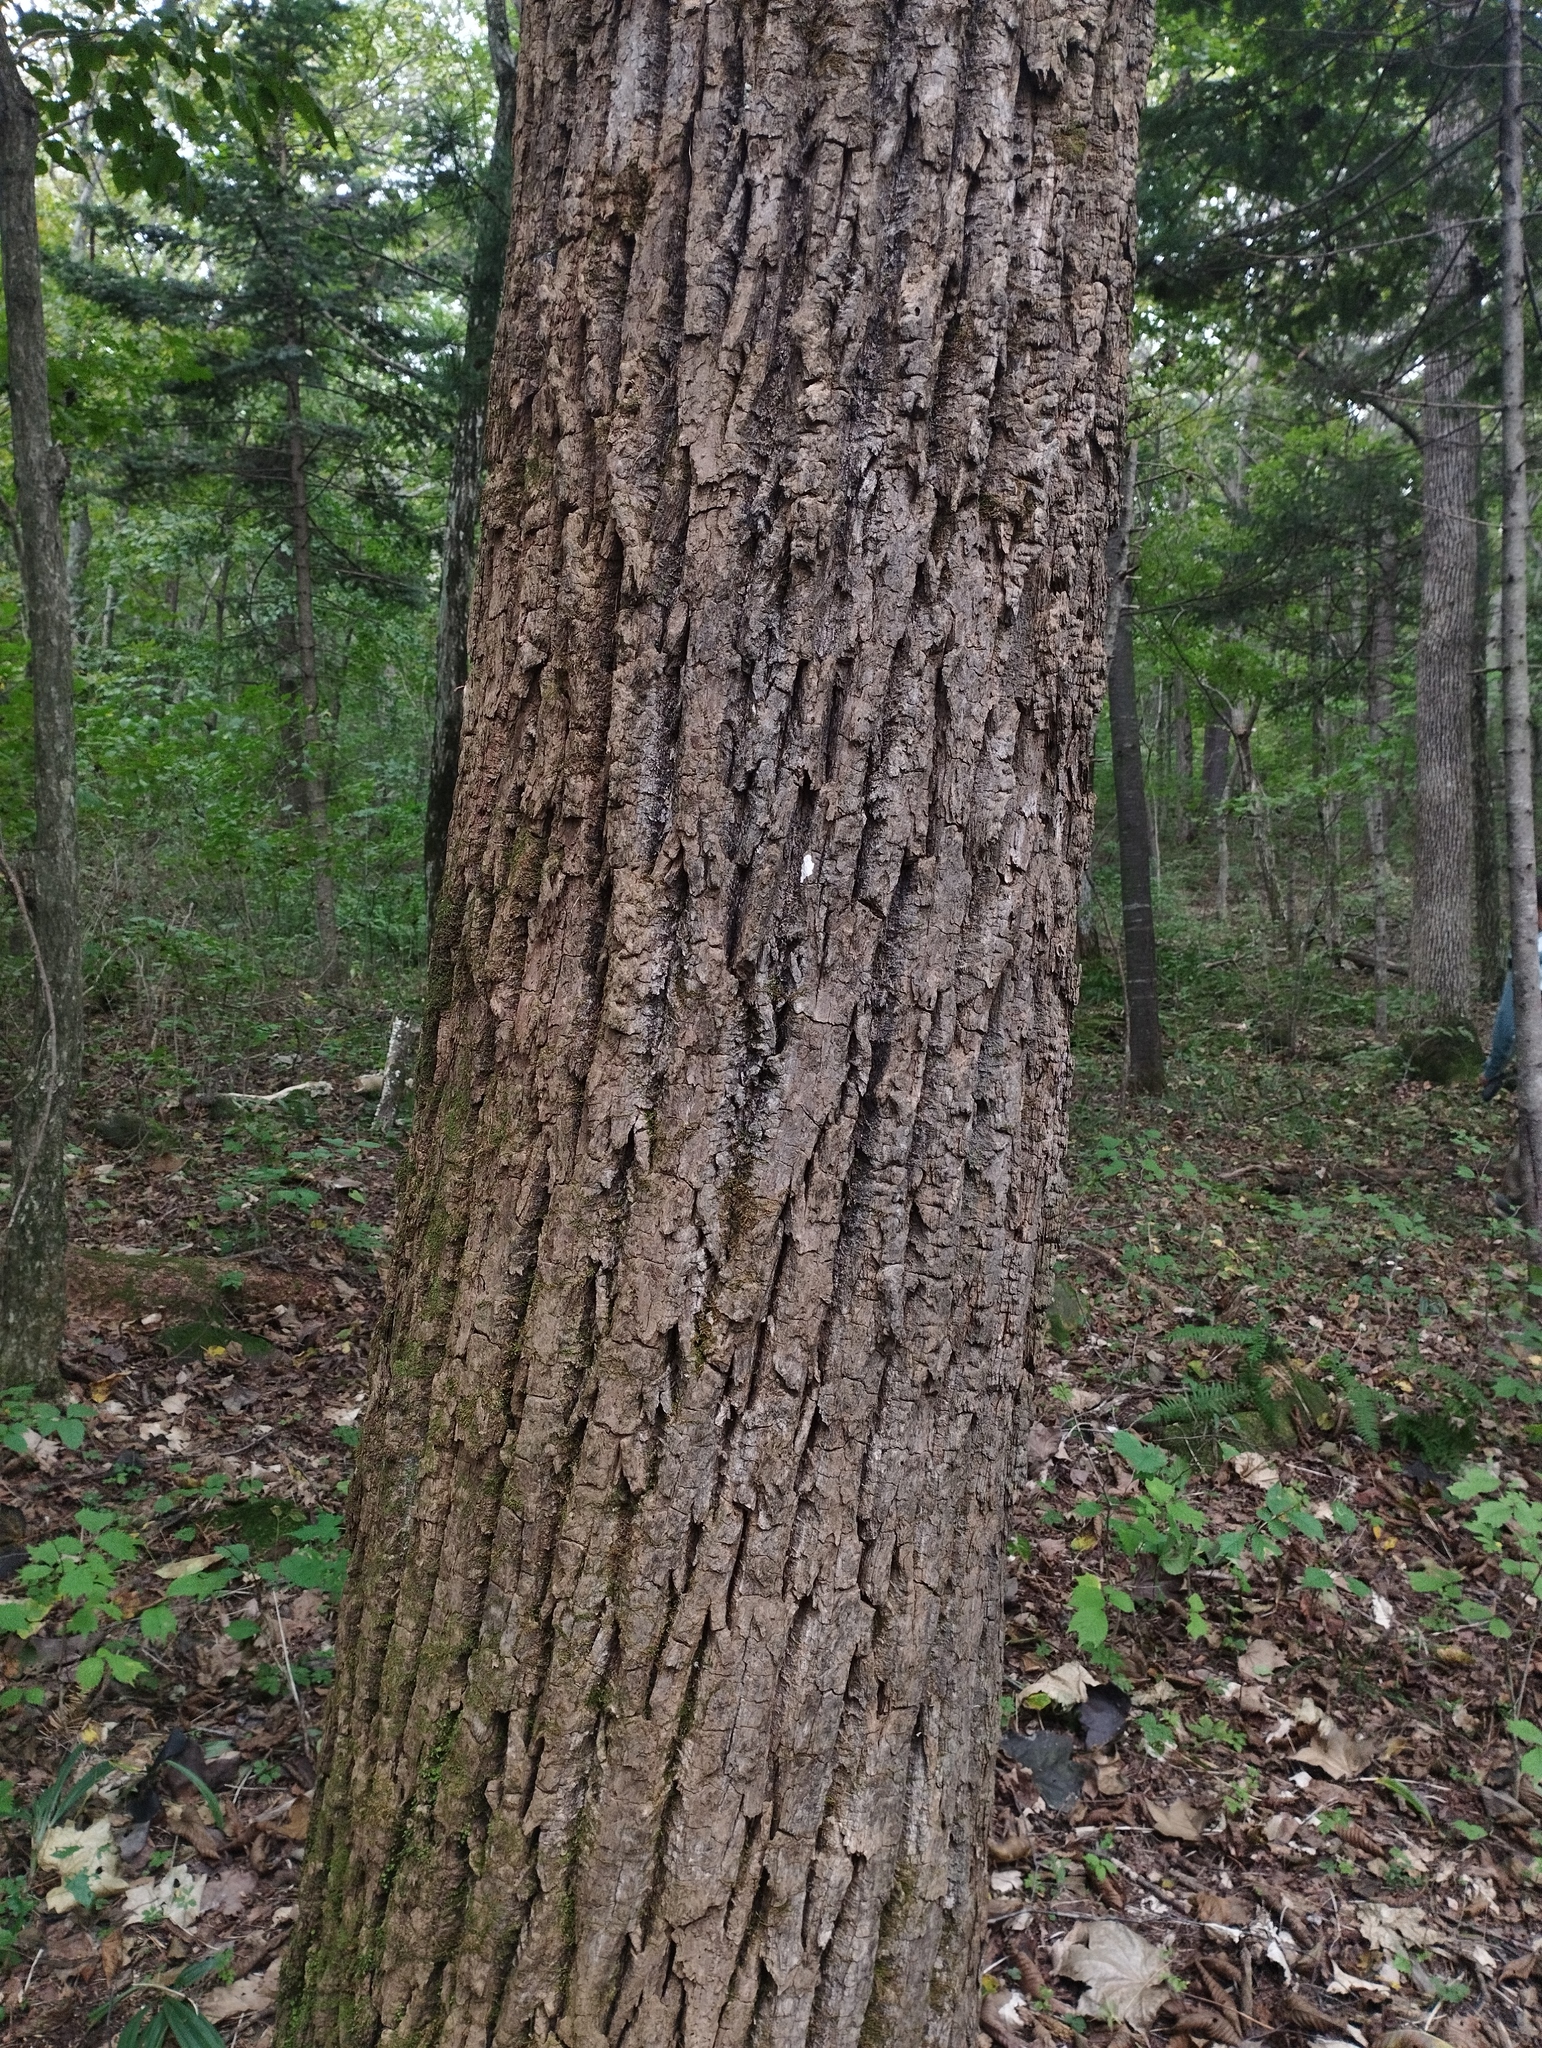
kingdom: Plantae
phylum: Tracheophyta
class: Magnoliopsida
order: Apiales
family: Araliaceae
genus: Kalopanax
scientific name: Kalopanax septemlobus
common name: Castor aralia
